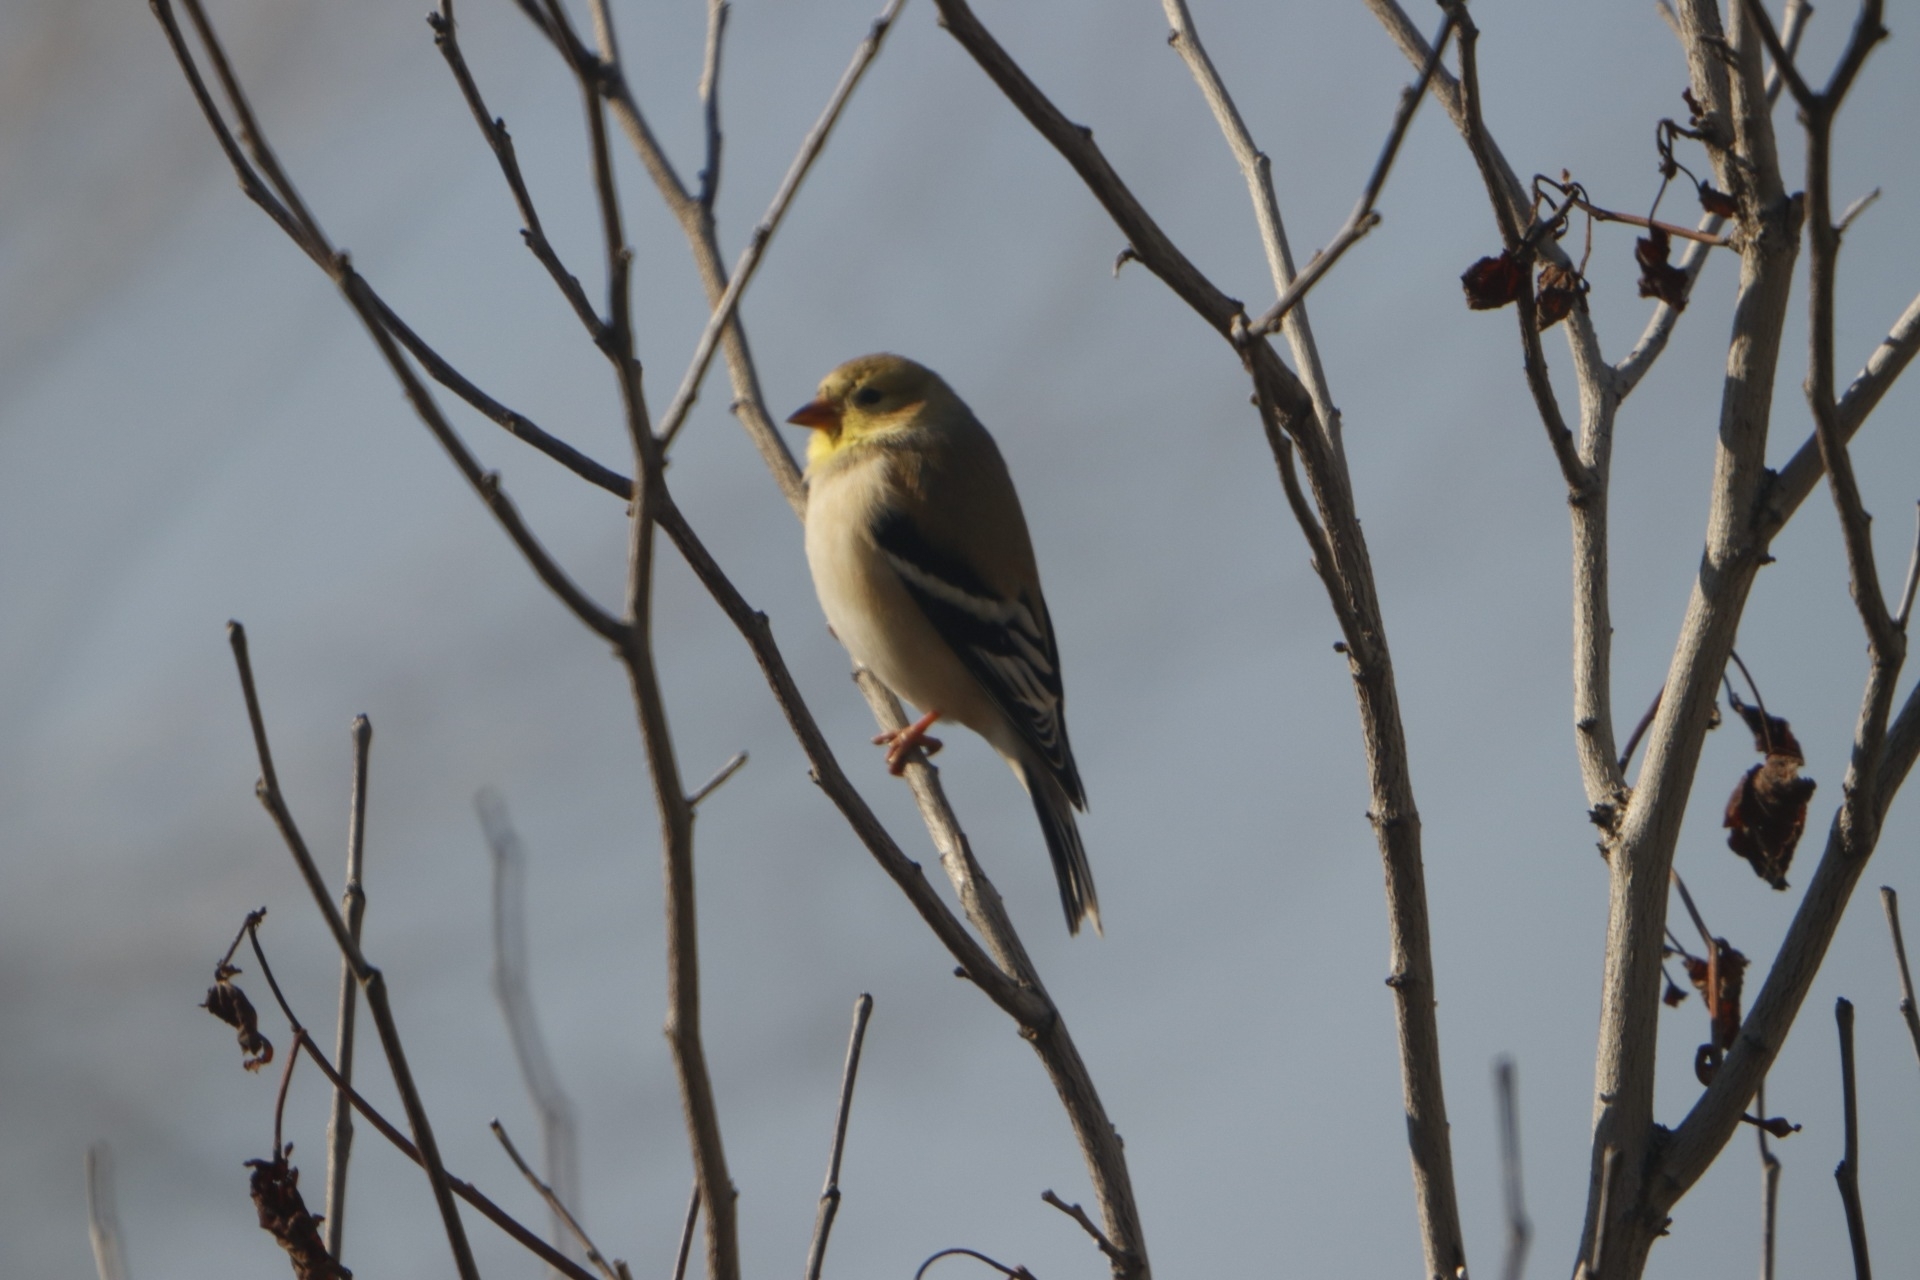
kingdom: Animalia
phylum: Chordata
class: Aves
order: Passeriformes
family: Fringillidae
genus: Spinus
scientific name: Spinus tristis
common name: American goldfinch
